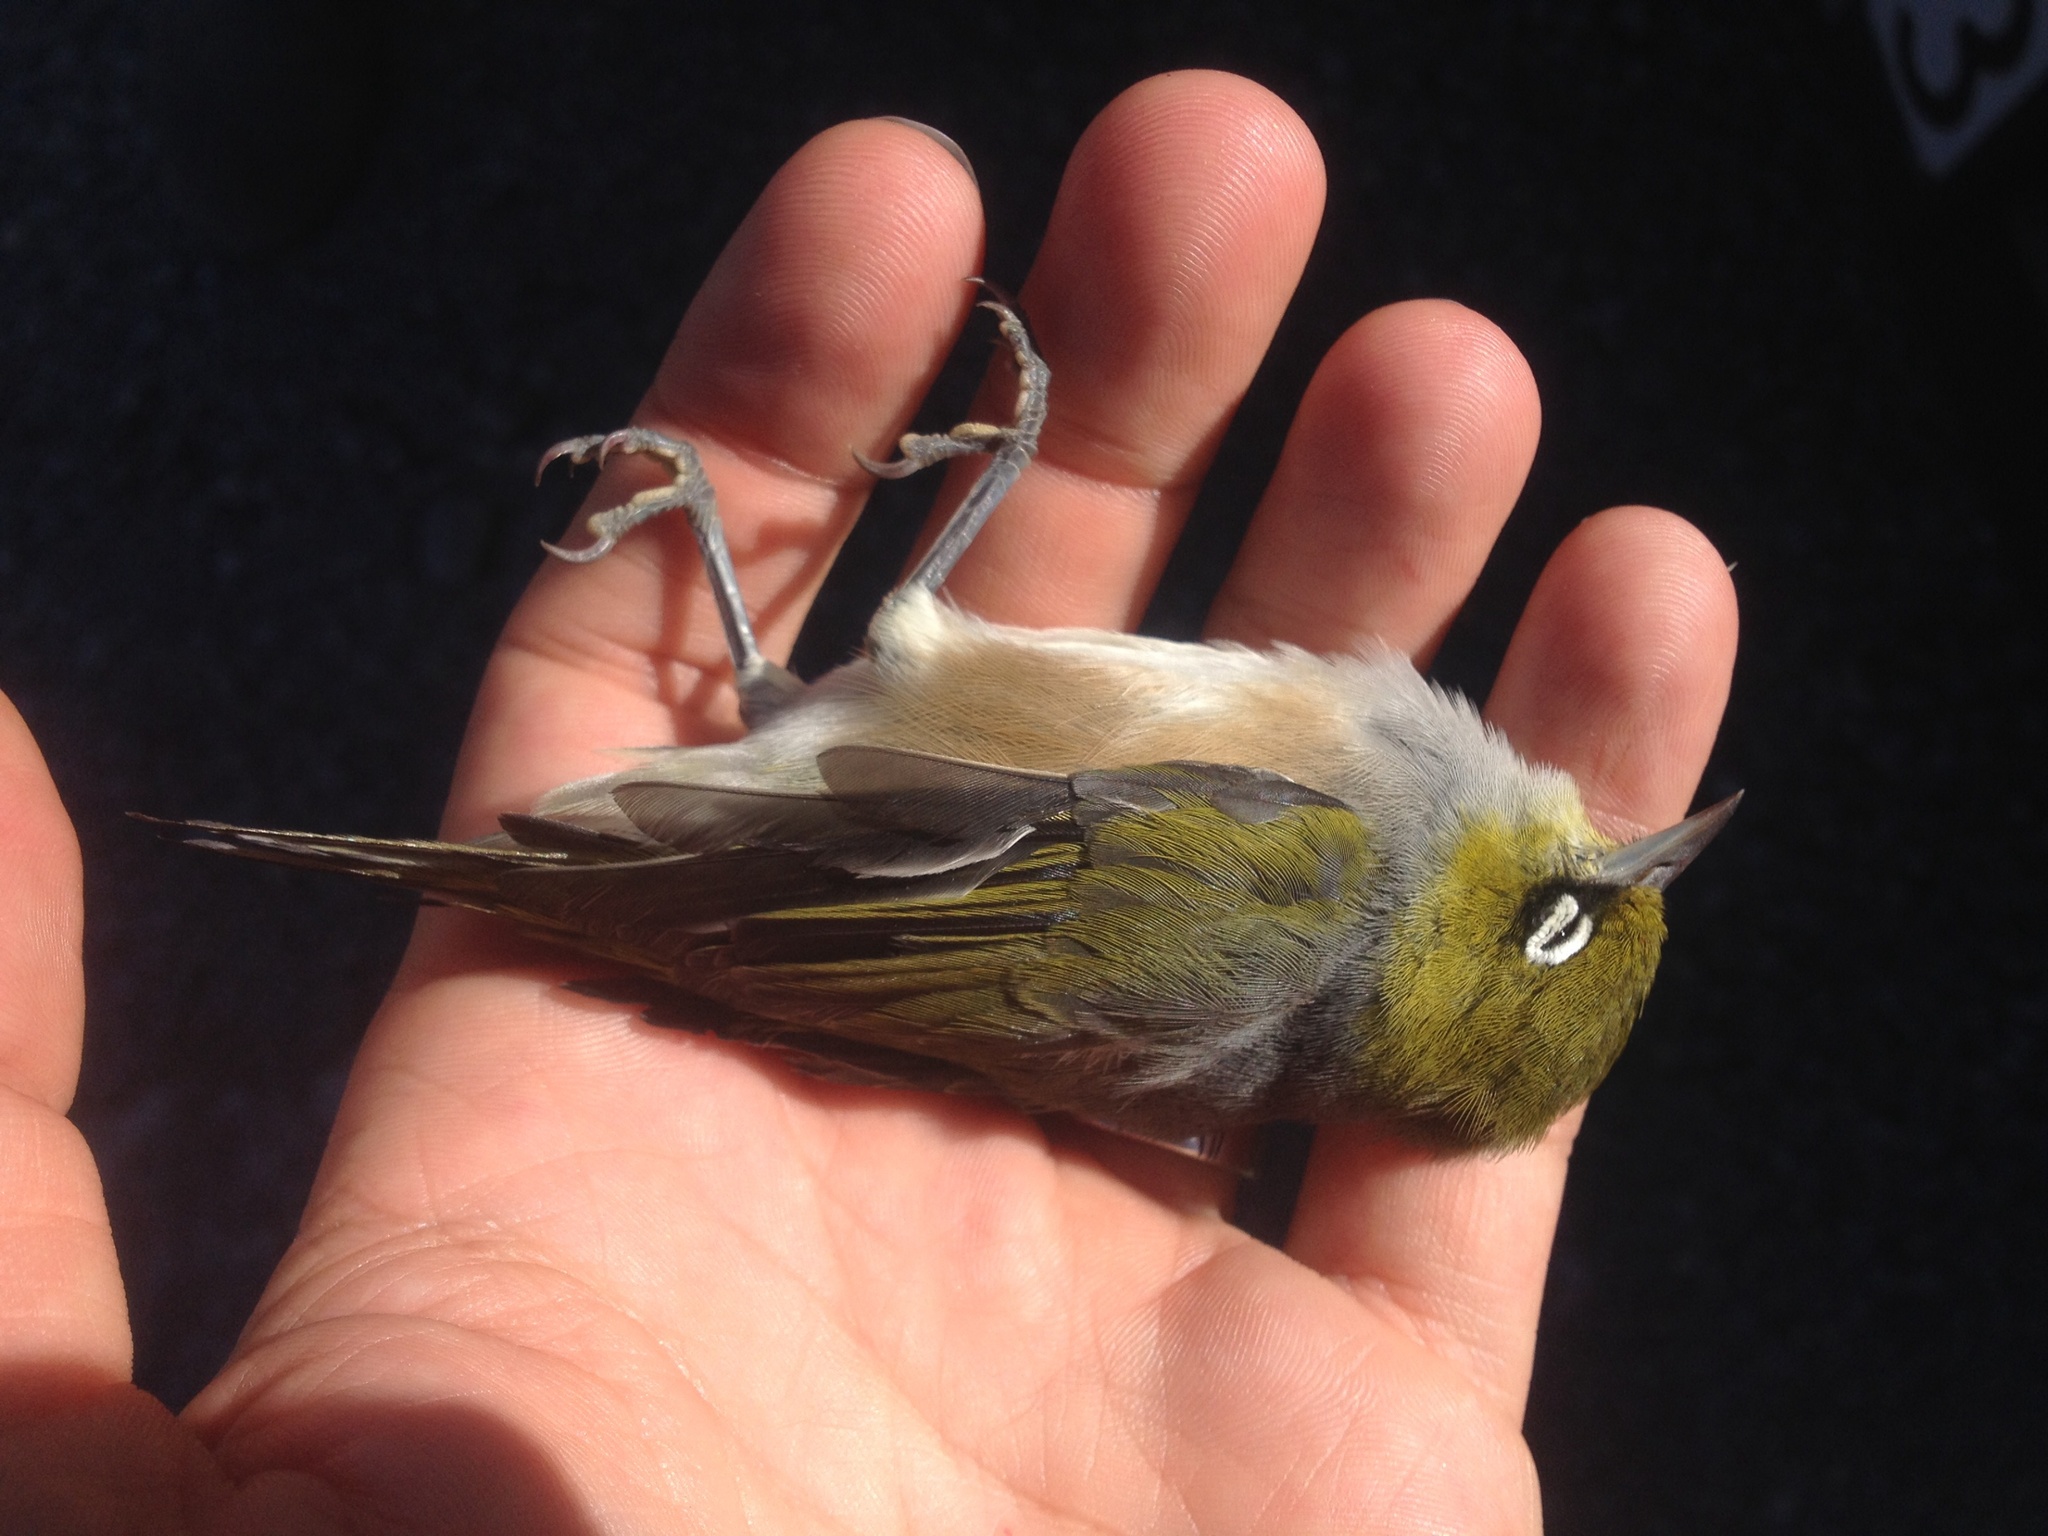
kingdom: Animalia
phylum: Chordata
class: Aves
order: Passeriformes
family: Zosteropidae
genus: Zosterops
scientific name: Zosterops lateralis
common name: Silvereye
